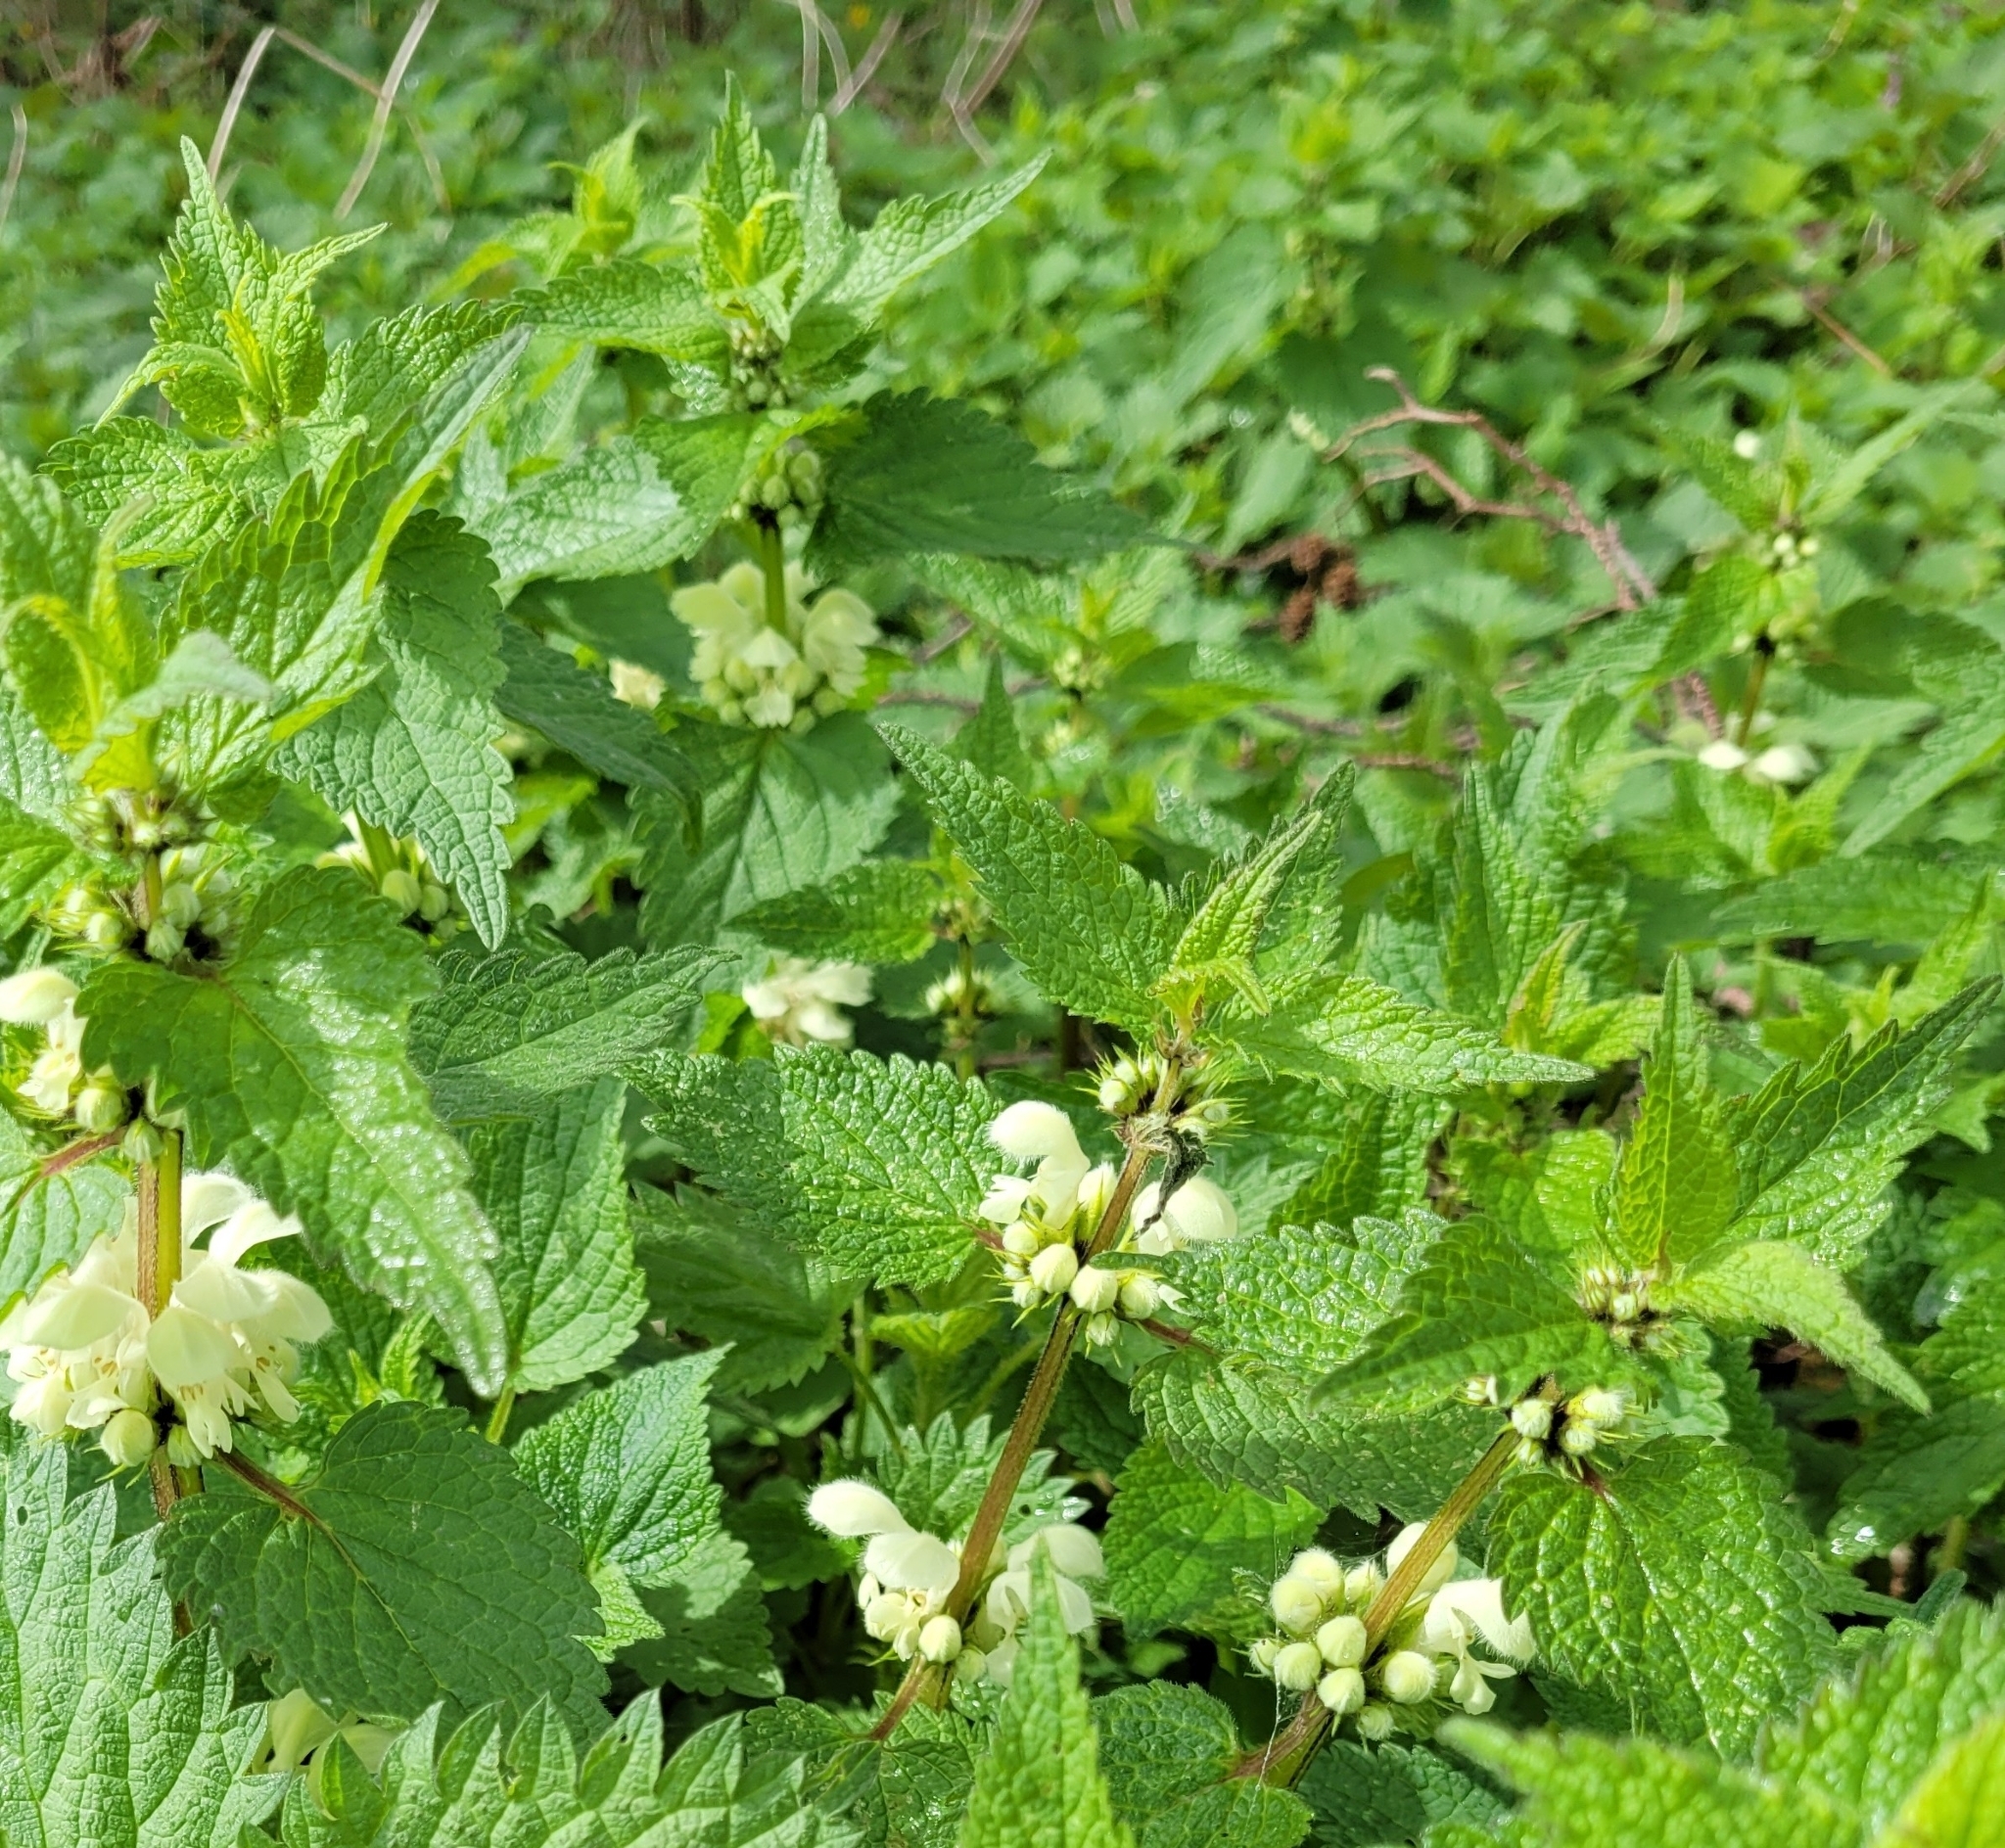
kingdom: Plantae
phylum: Tracheophyta
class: Magnoliopsida
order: Lamiales
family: Lamiaceae
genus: Lamium
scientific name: Lamium album
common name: White dead-nettle
